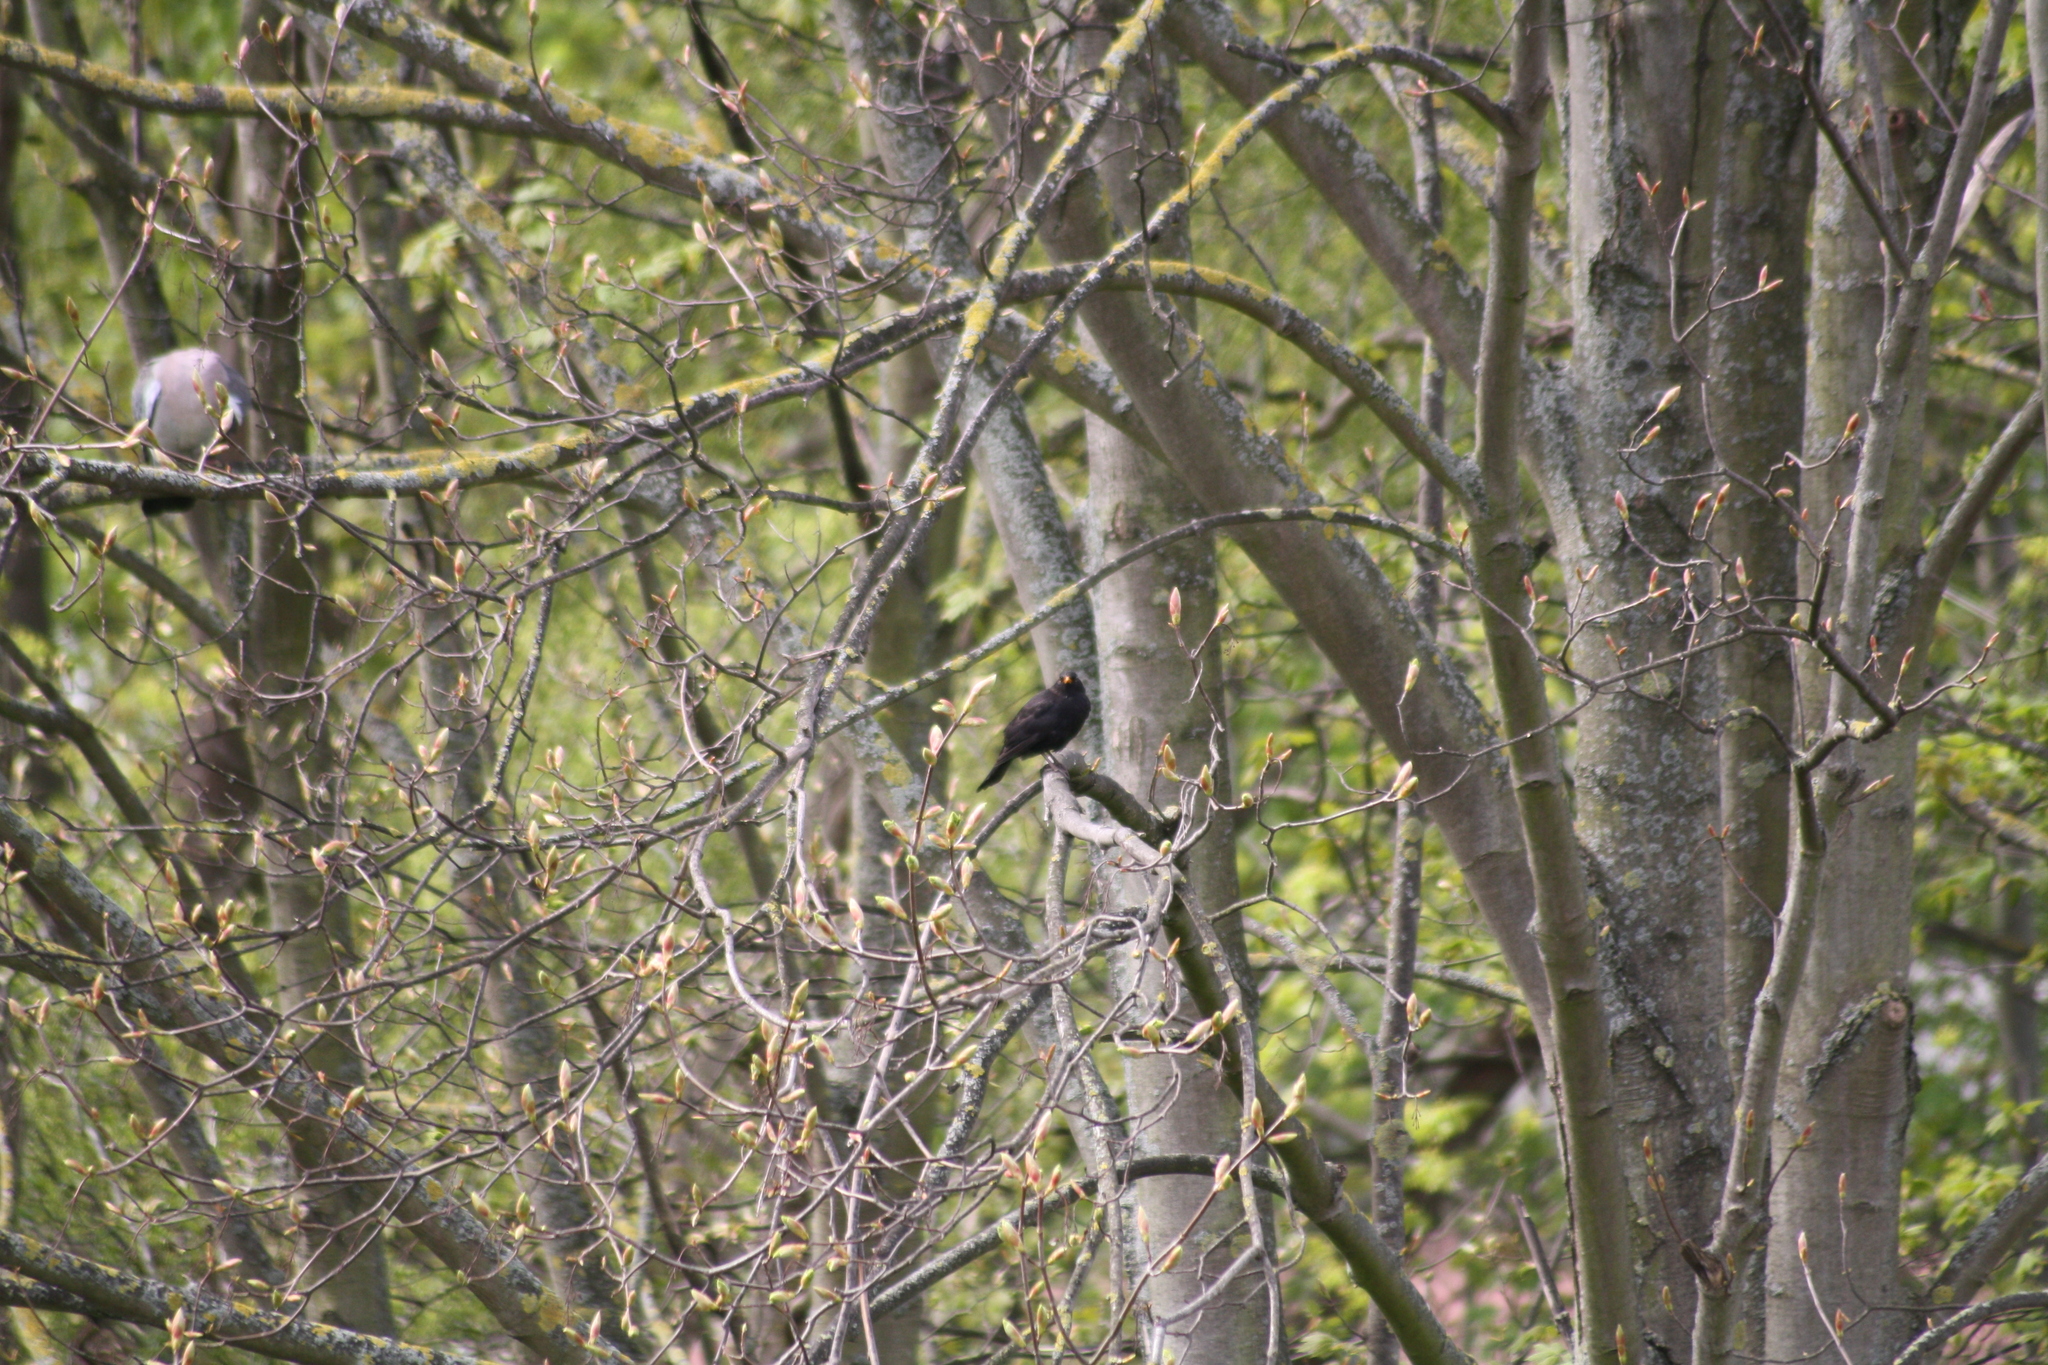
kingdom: Animalia
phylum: Chordata
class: Aves
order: Passeriformes
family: Turdidae
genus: Turdus
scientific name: Turdus merula
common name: Common blackbird
